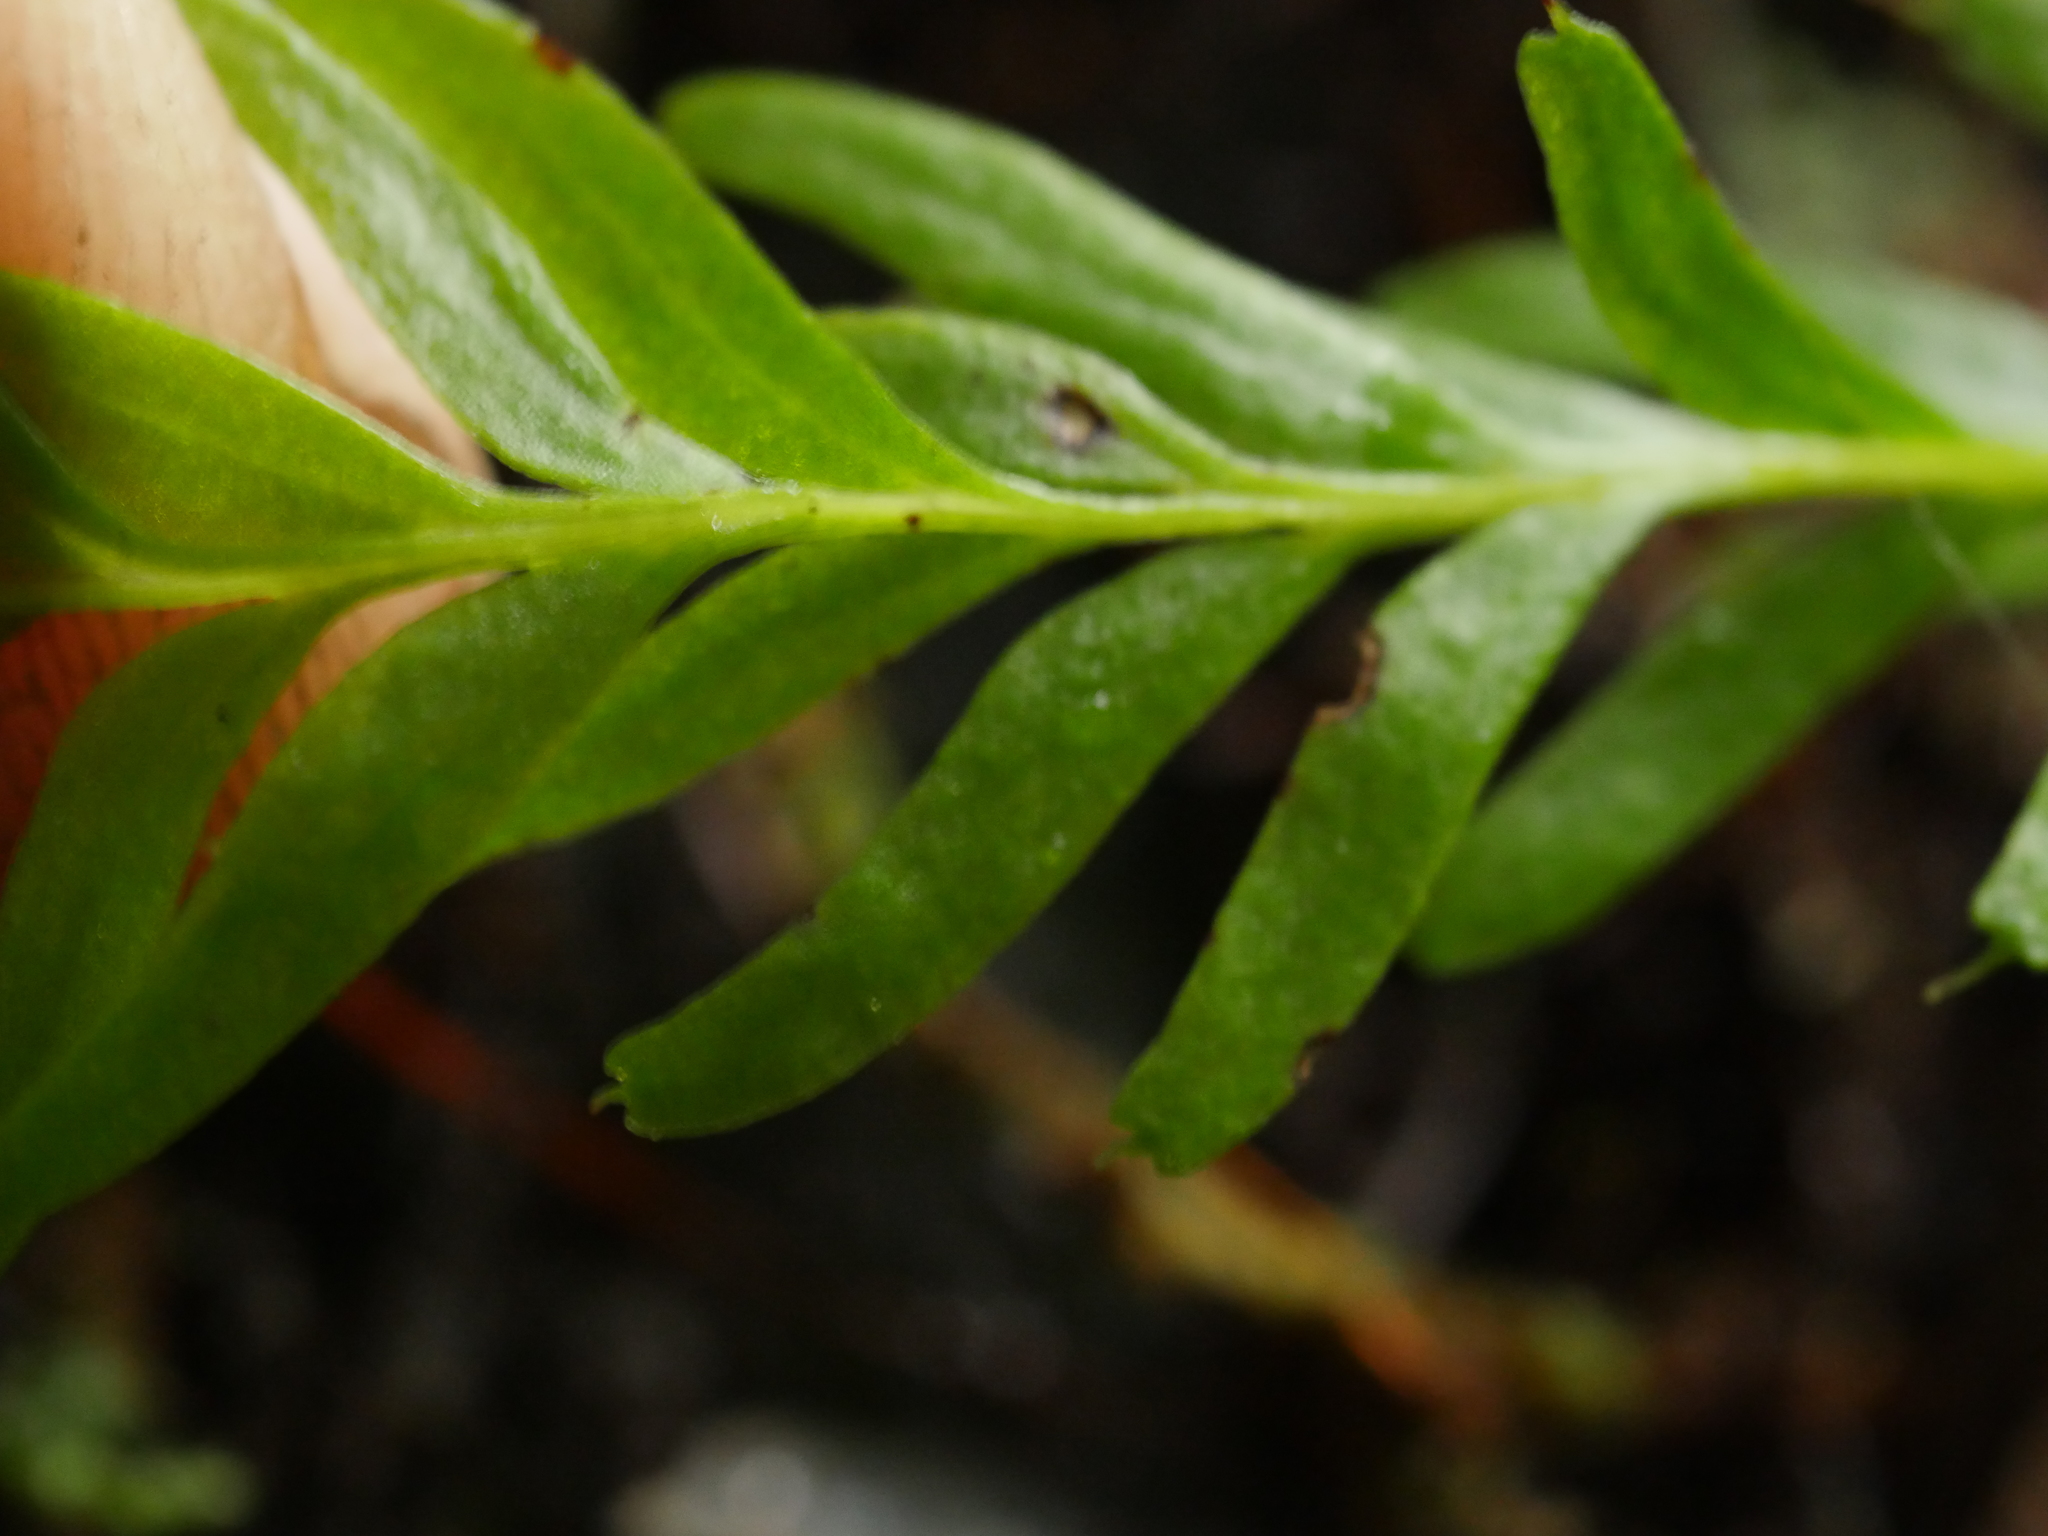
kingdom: Plantae
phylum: Tracheophyta
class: Polypodiopsida
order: Psilotales
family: Psilotaceae
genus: Tmesipteris
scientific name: Tmesipteris sigmatifolia
